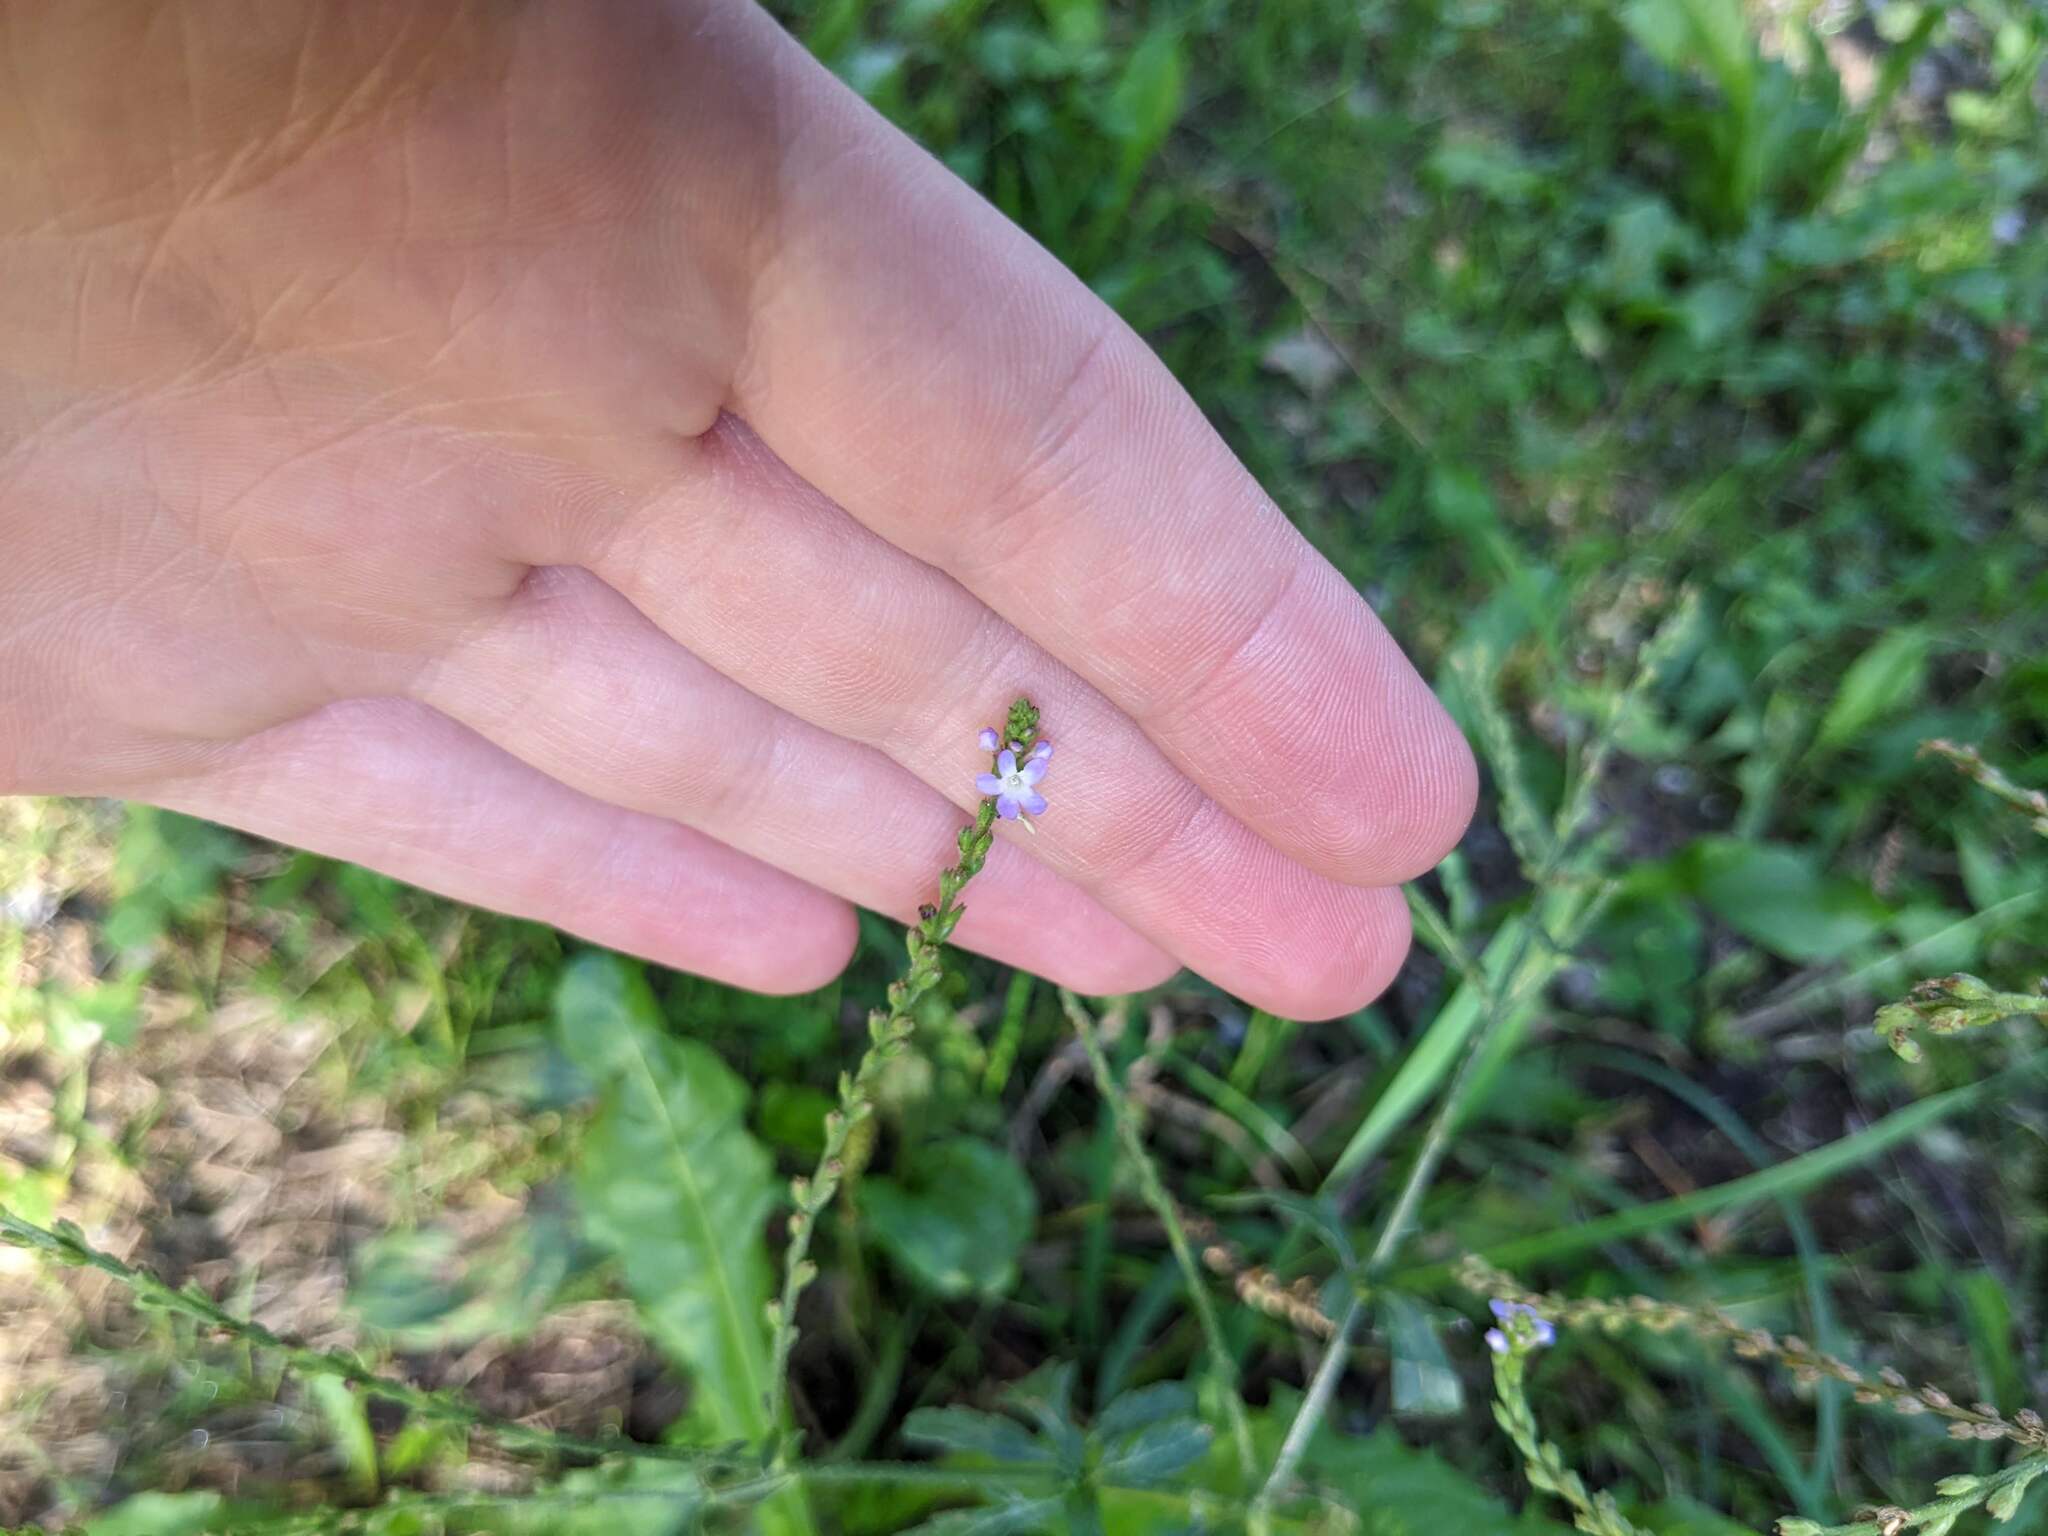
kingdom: Plantae
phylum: Tracheophyta
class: Magnoliopsida
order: Lamiales
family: Verbenaceae
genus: Verbena
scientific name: Verbena officinalis
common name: Vervain
